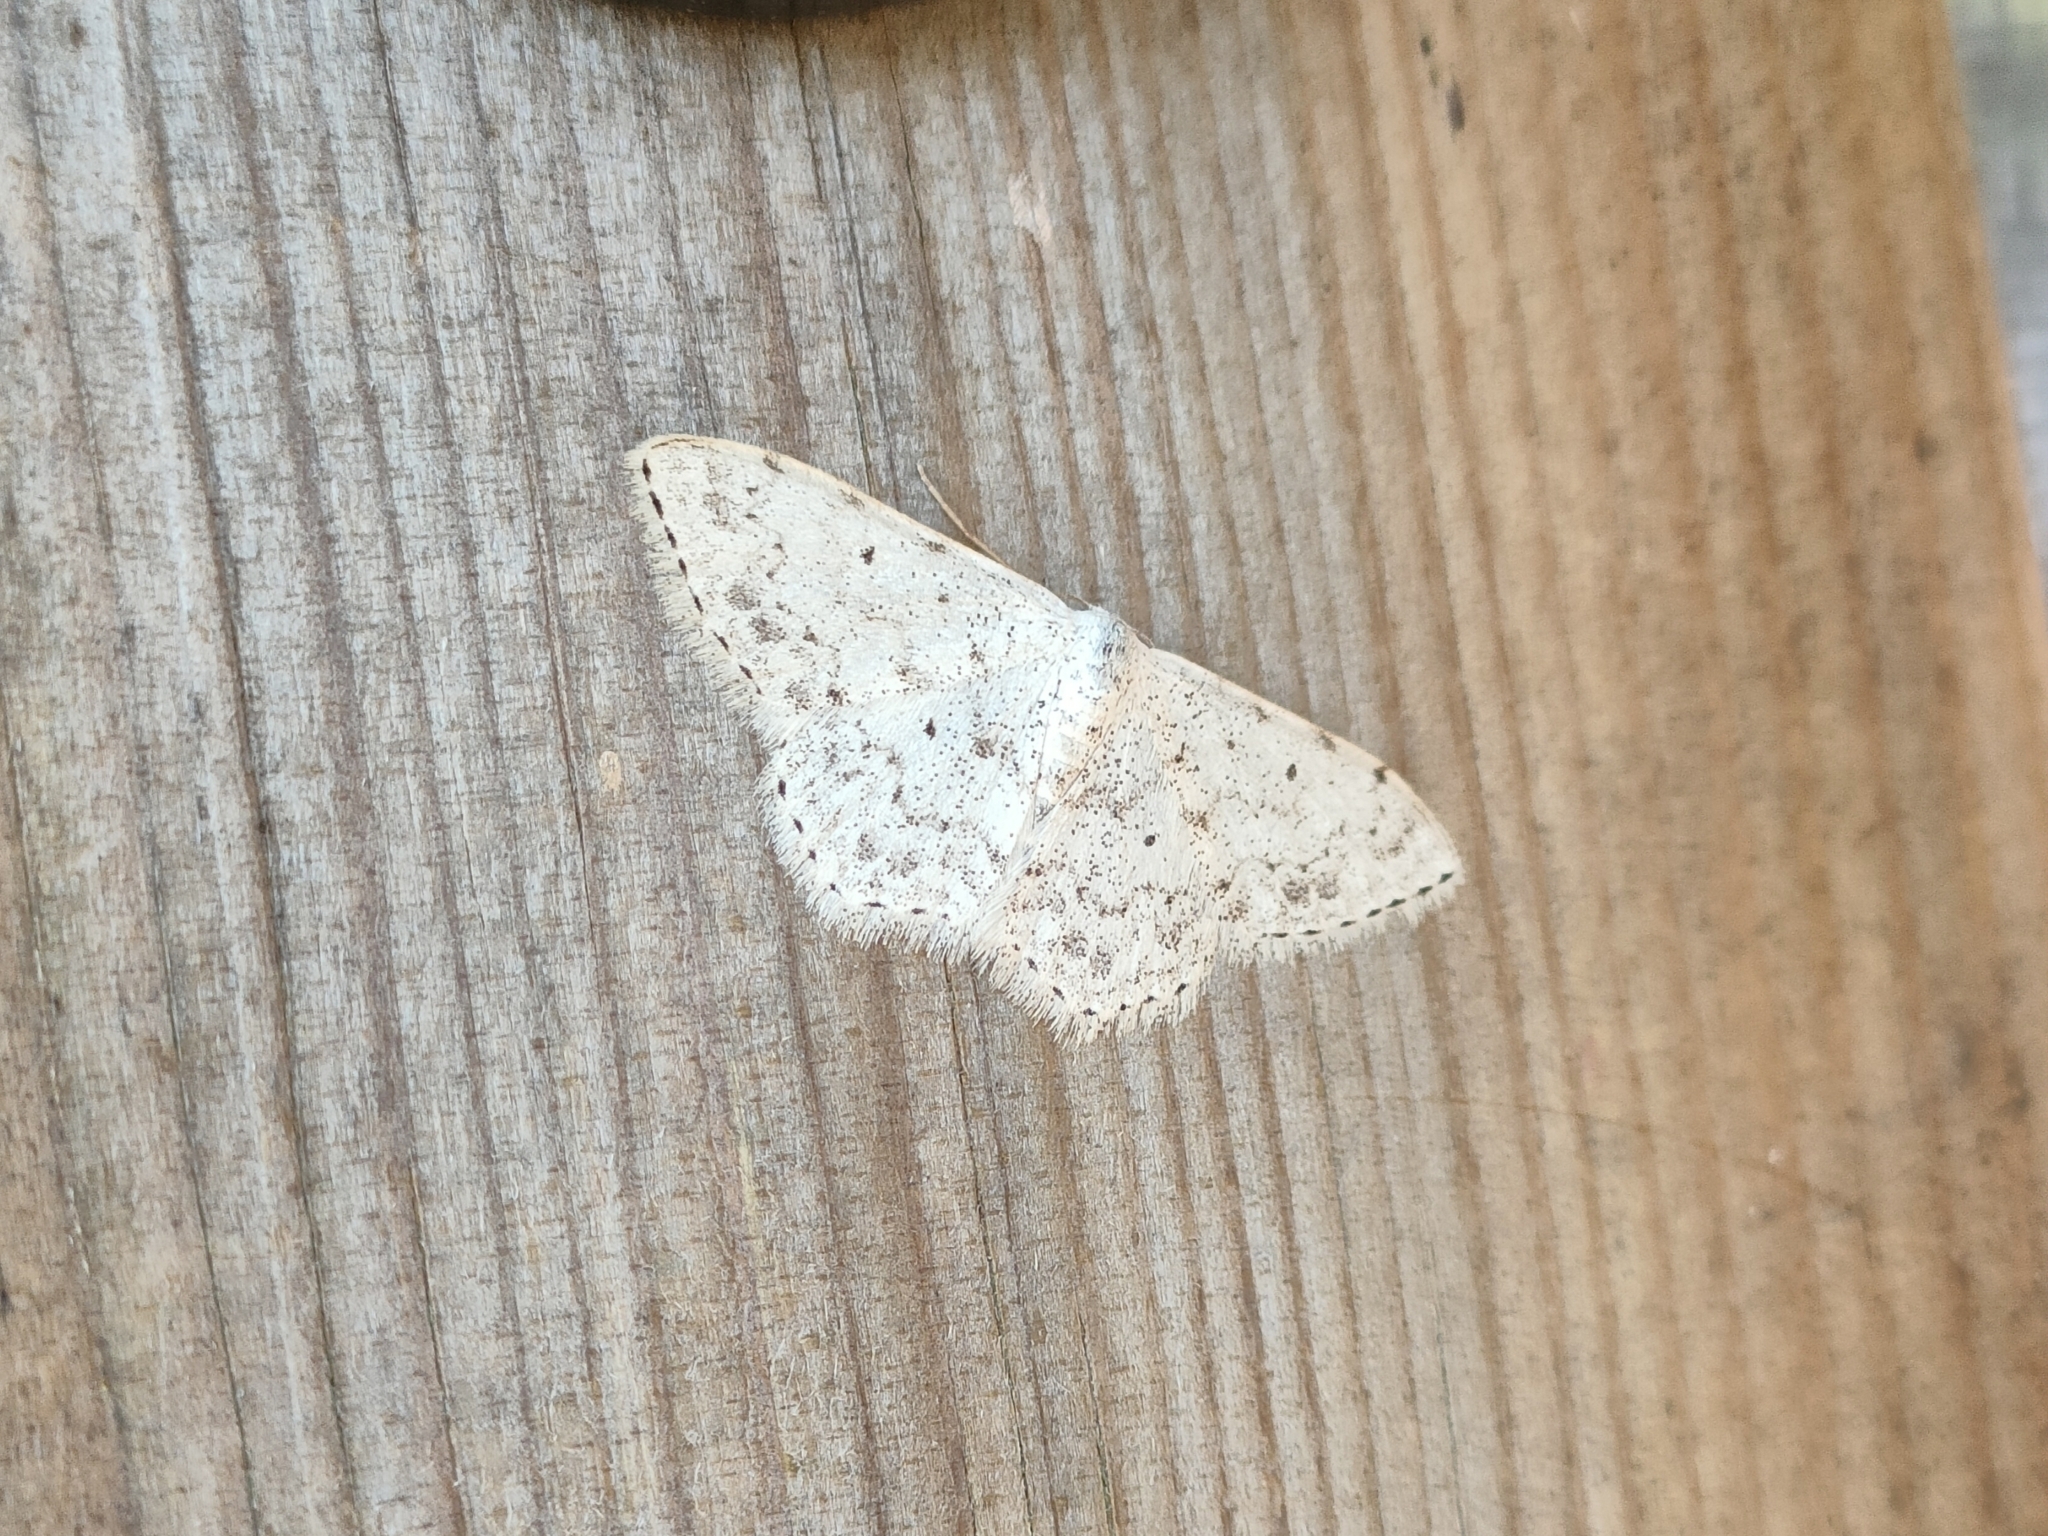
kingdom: Animalia
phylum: Arthropoda
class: Insecta
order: Lepidoptera
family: Geometridae
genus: Scopula
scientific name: Scopula marginepunctata
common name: Mullein wave
